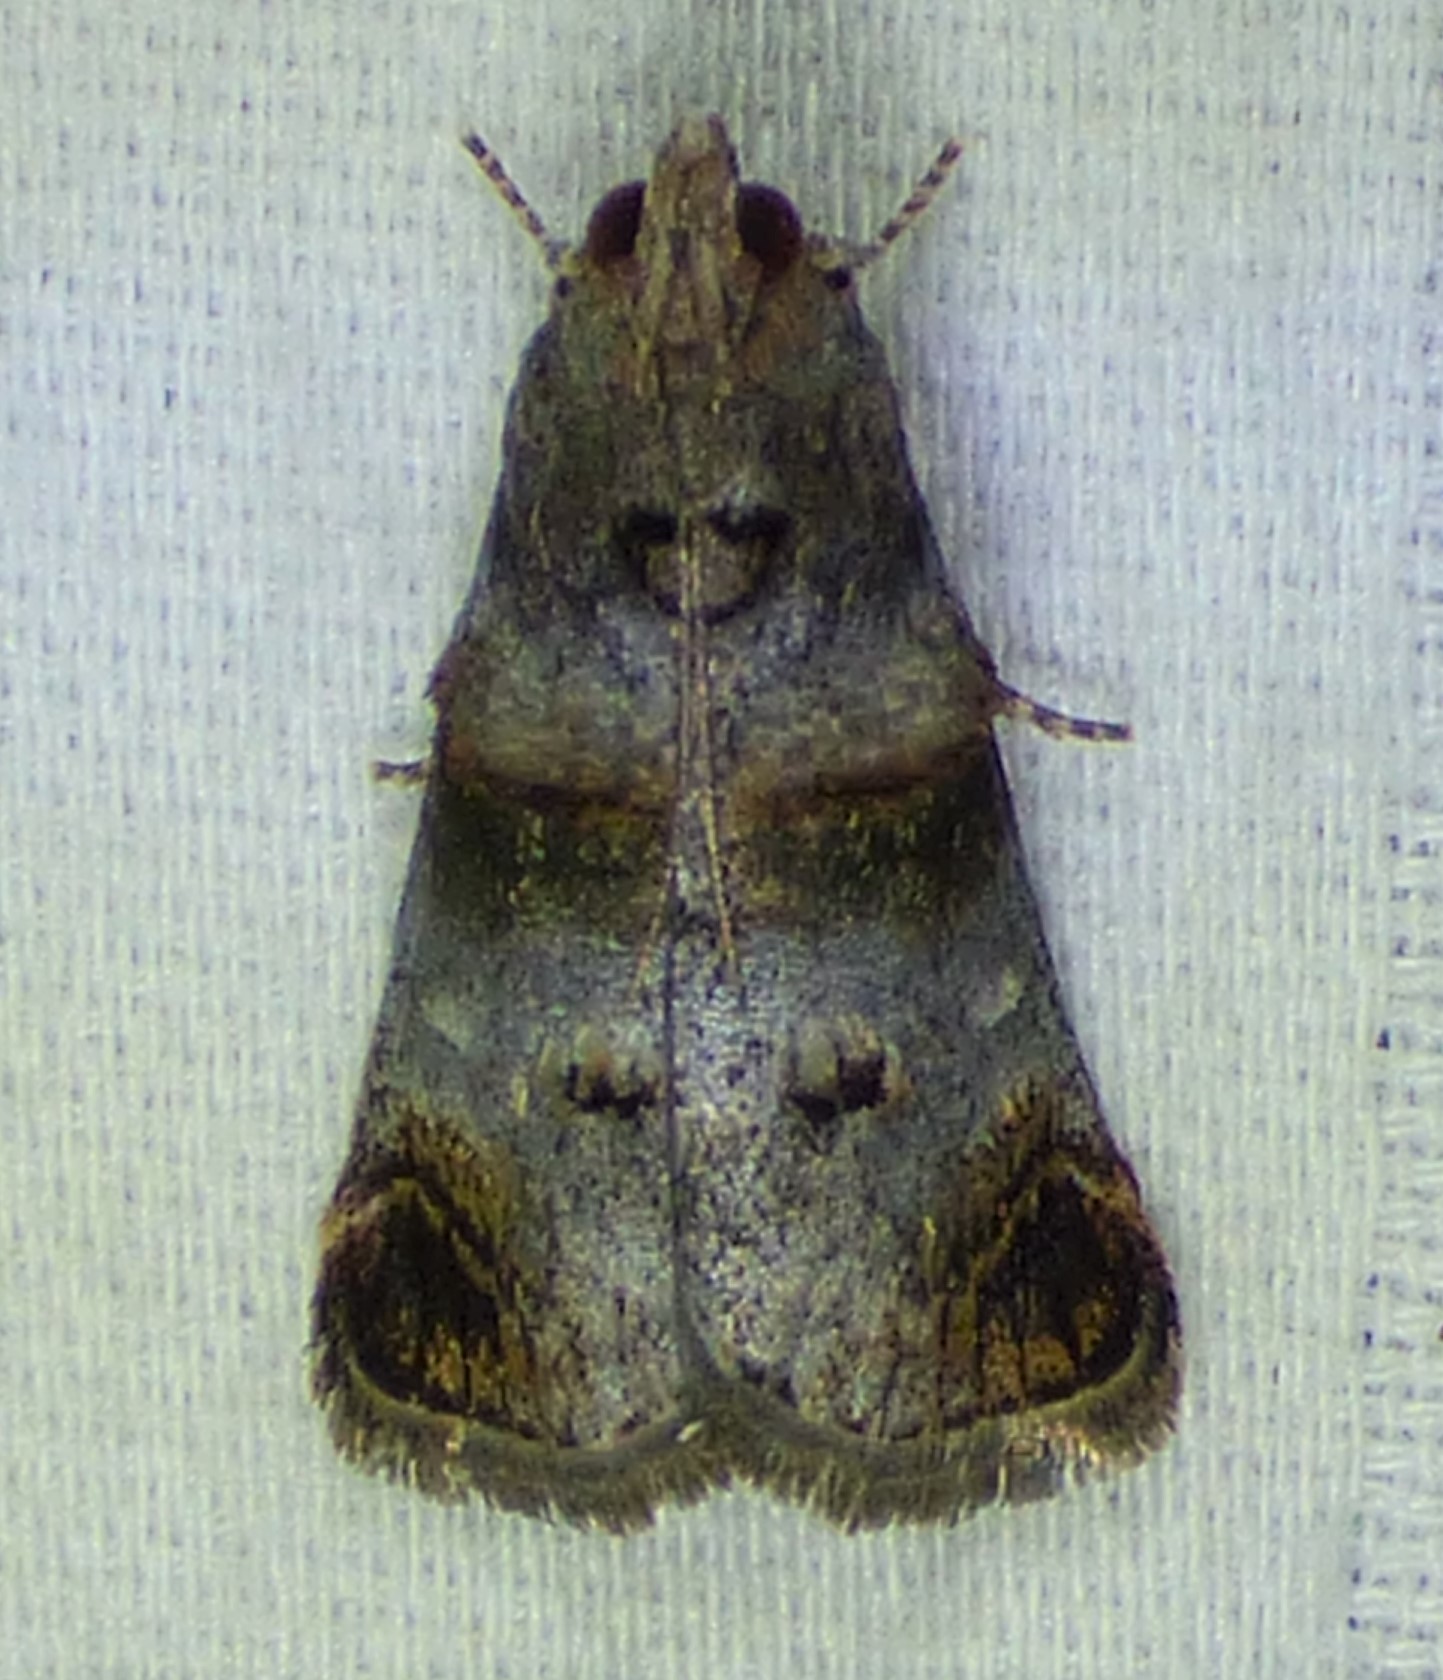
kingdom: Animalia
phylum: Arthropoda
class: Insecta
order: Lepidoptera
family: Pyralidae
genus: Oneida
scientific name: Oneida lunulalis
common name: Orange-tufted oneida moth
